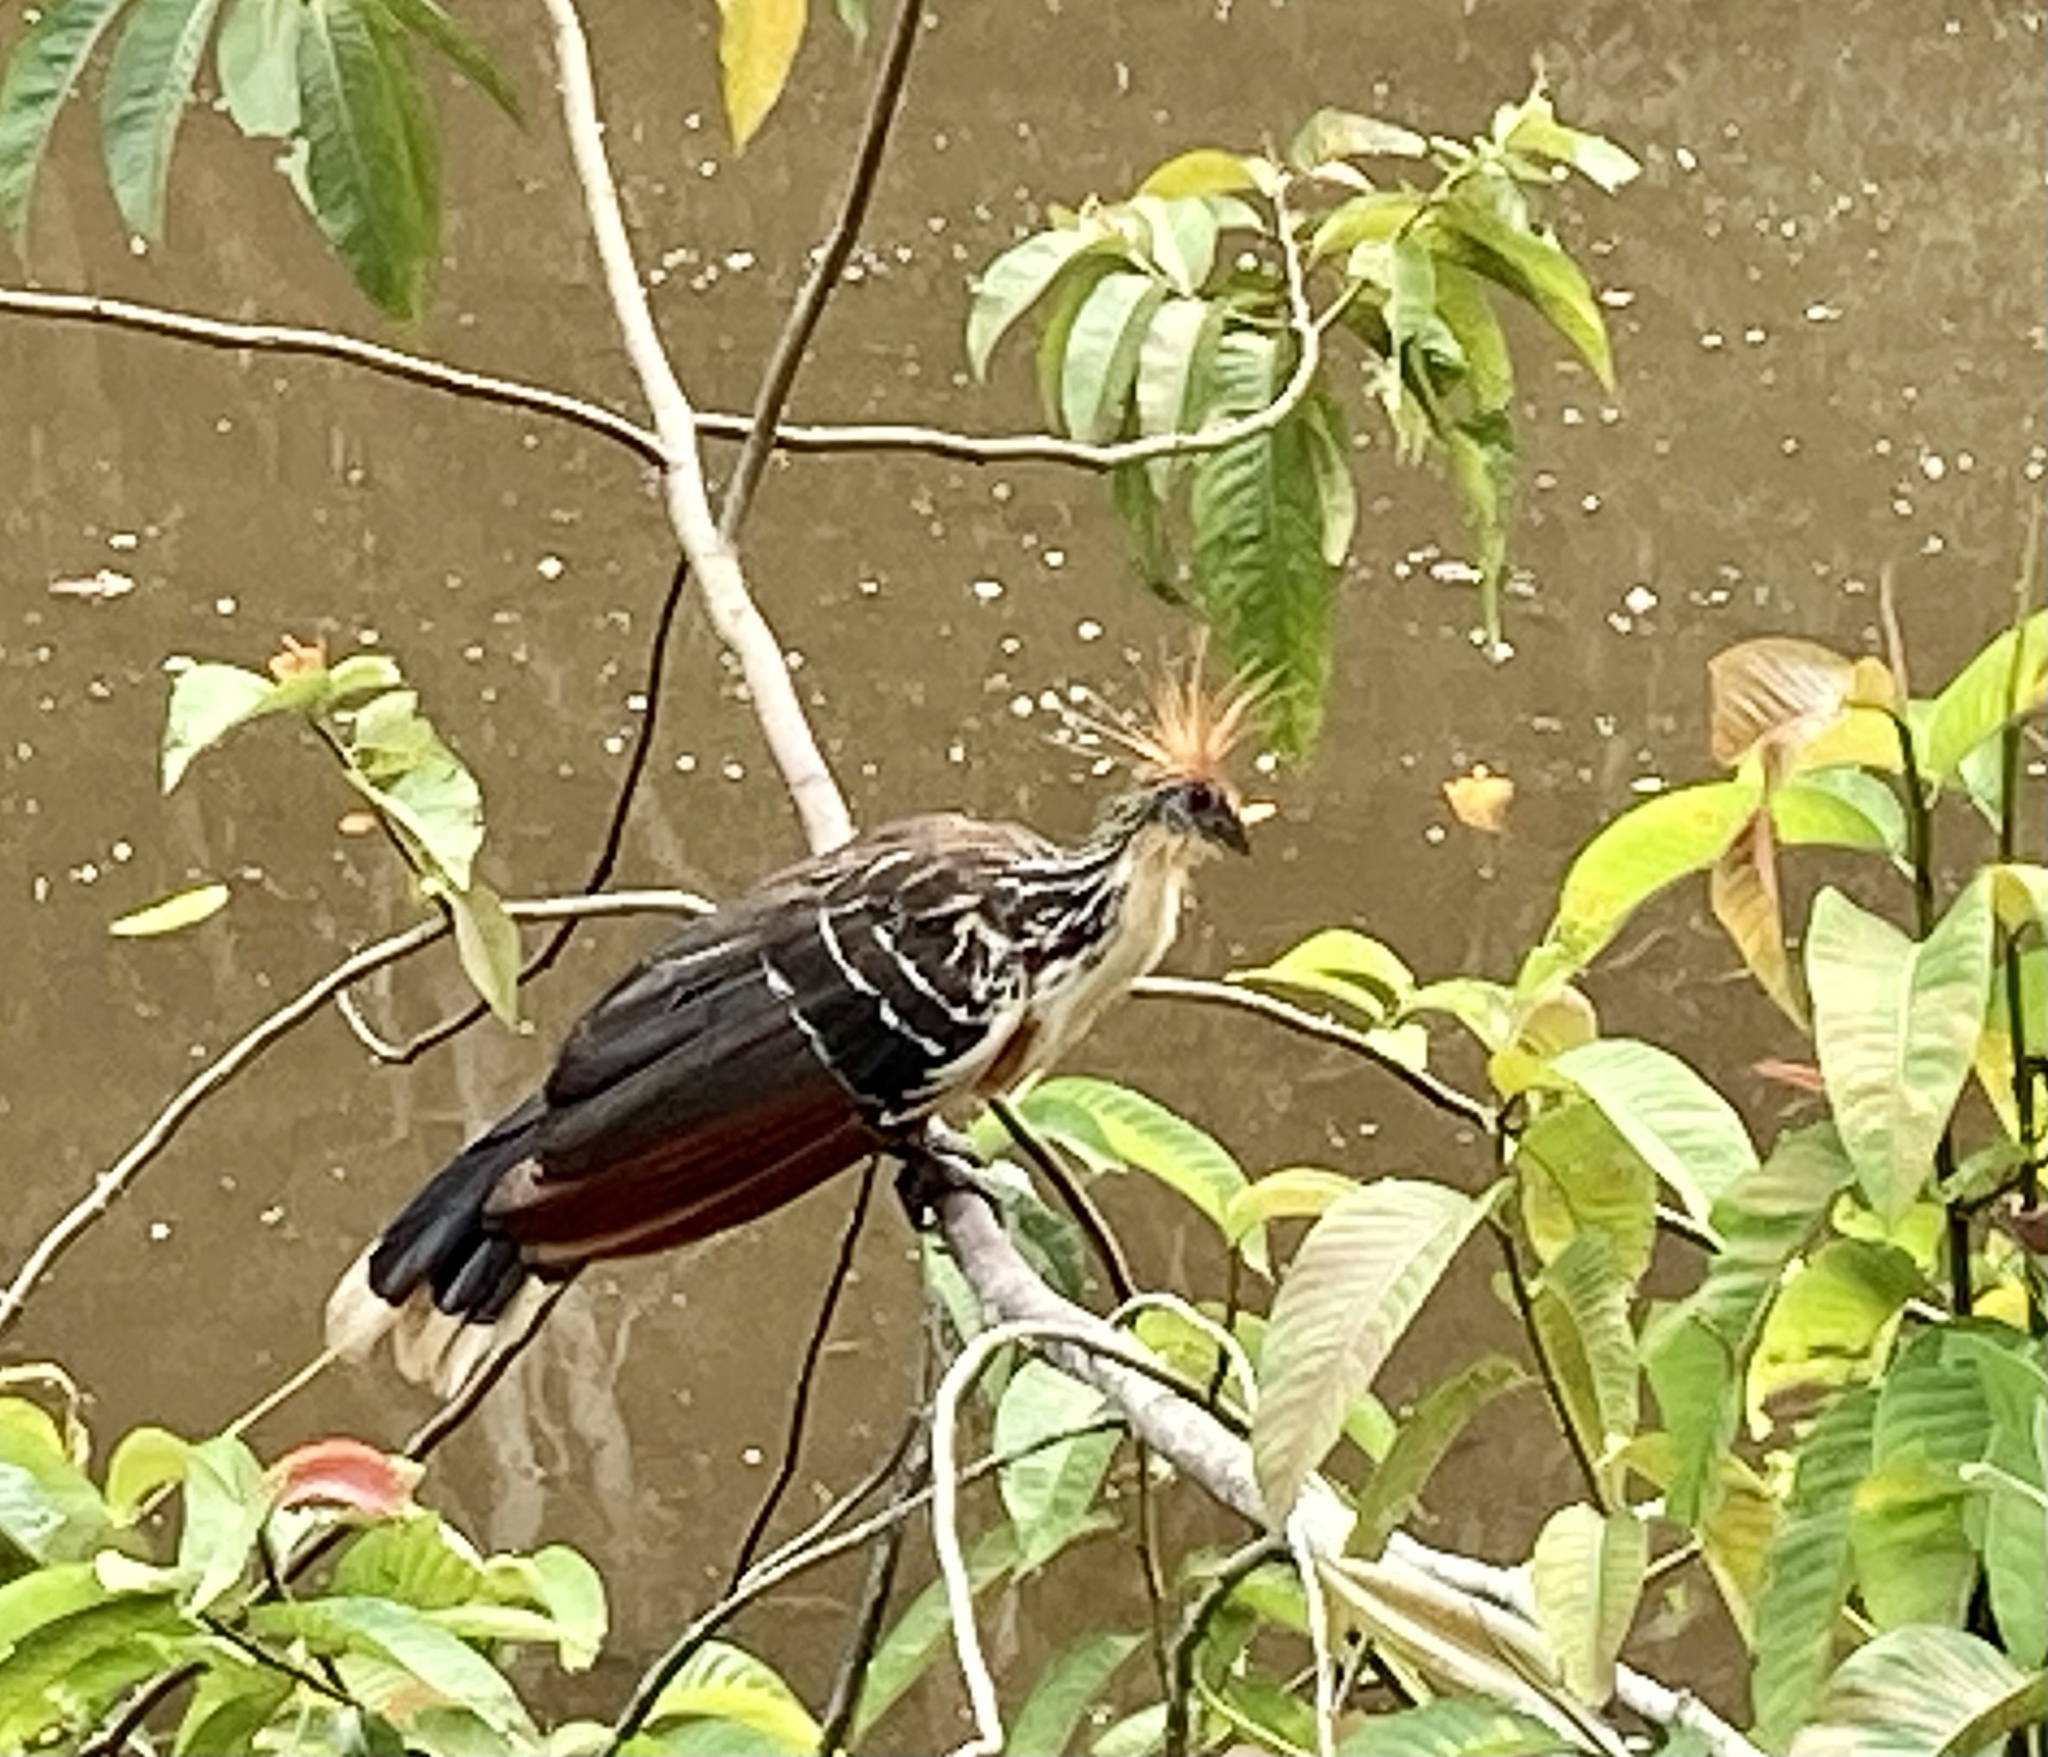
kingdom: Animalia
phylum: Chordata
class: Aves
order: Opisthocomiformes
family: Opisthocomidae
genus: Opisthocomus
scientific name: Opisthocomus hoazin
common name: Hoatzin
